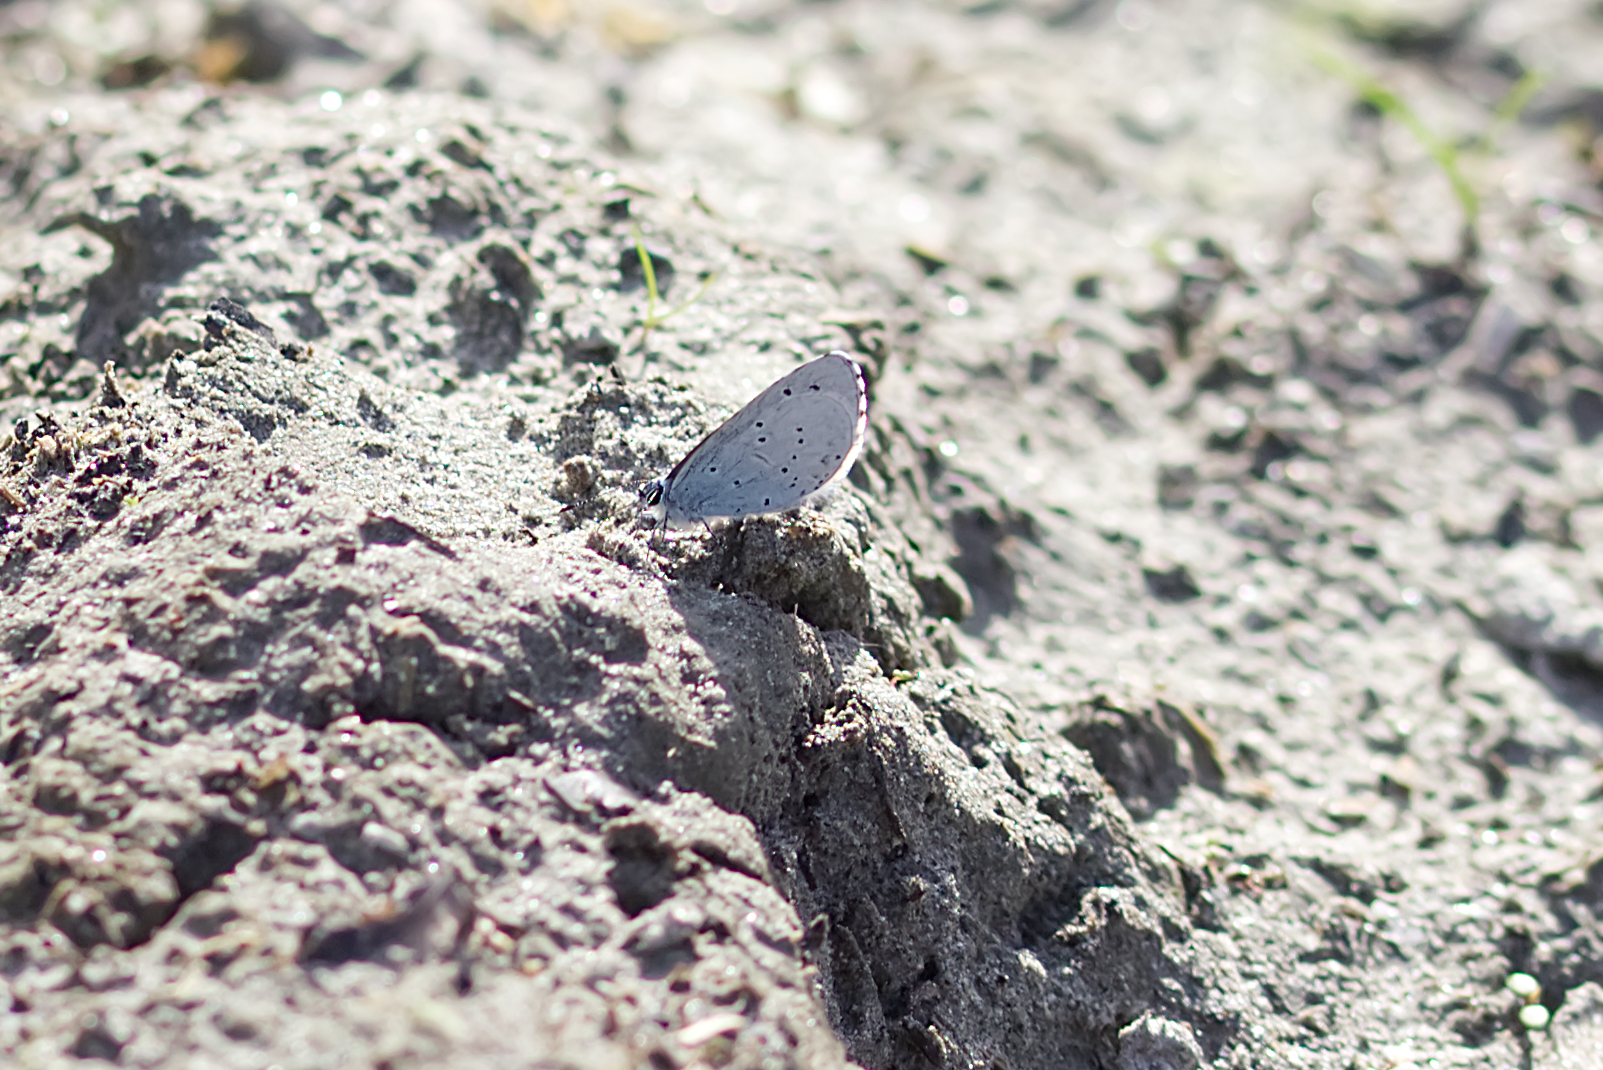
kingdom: Animalia
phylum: Arthropoda
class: Insecta
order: Lepidoptera
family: Lycaenidae
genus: Celastrina
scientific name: Celastrina argiolus
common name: Holly blue
